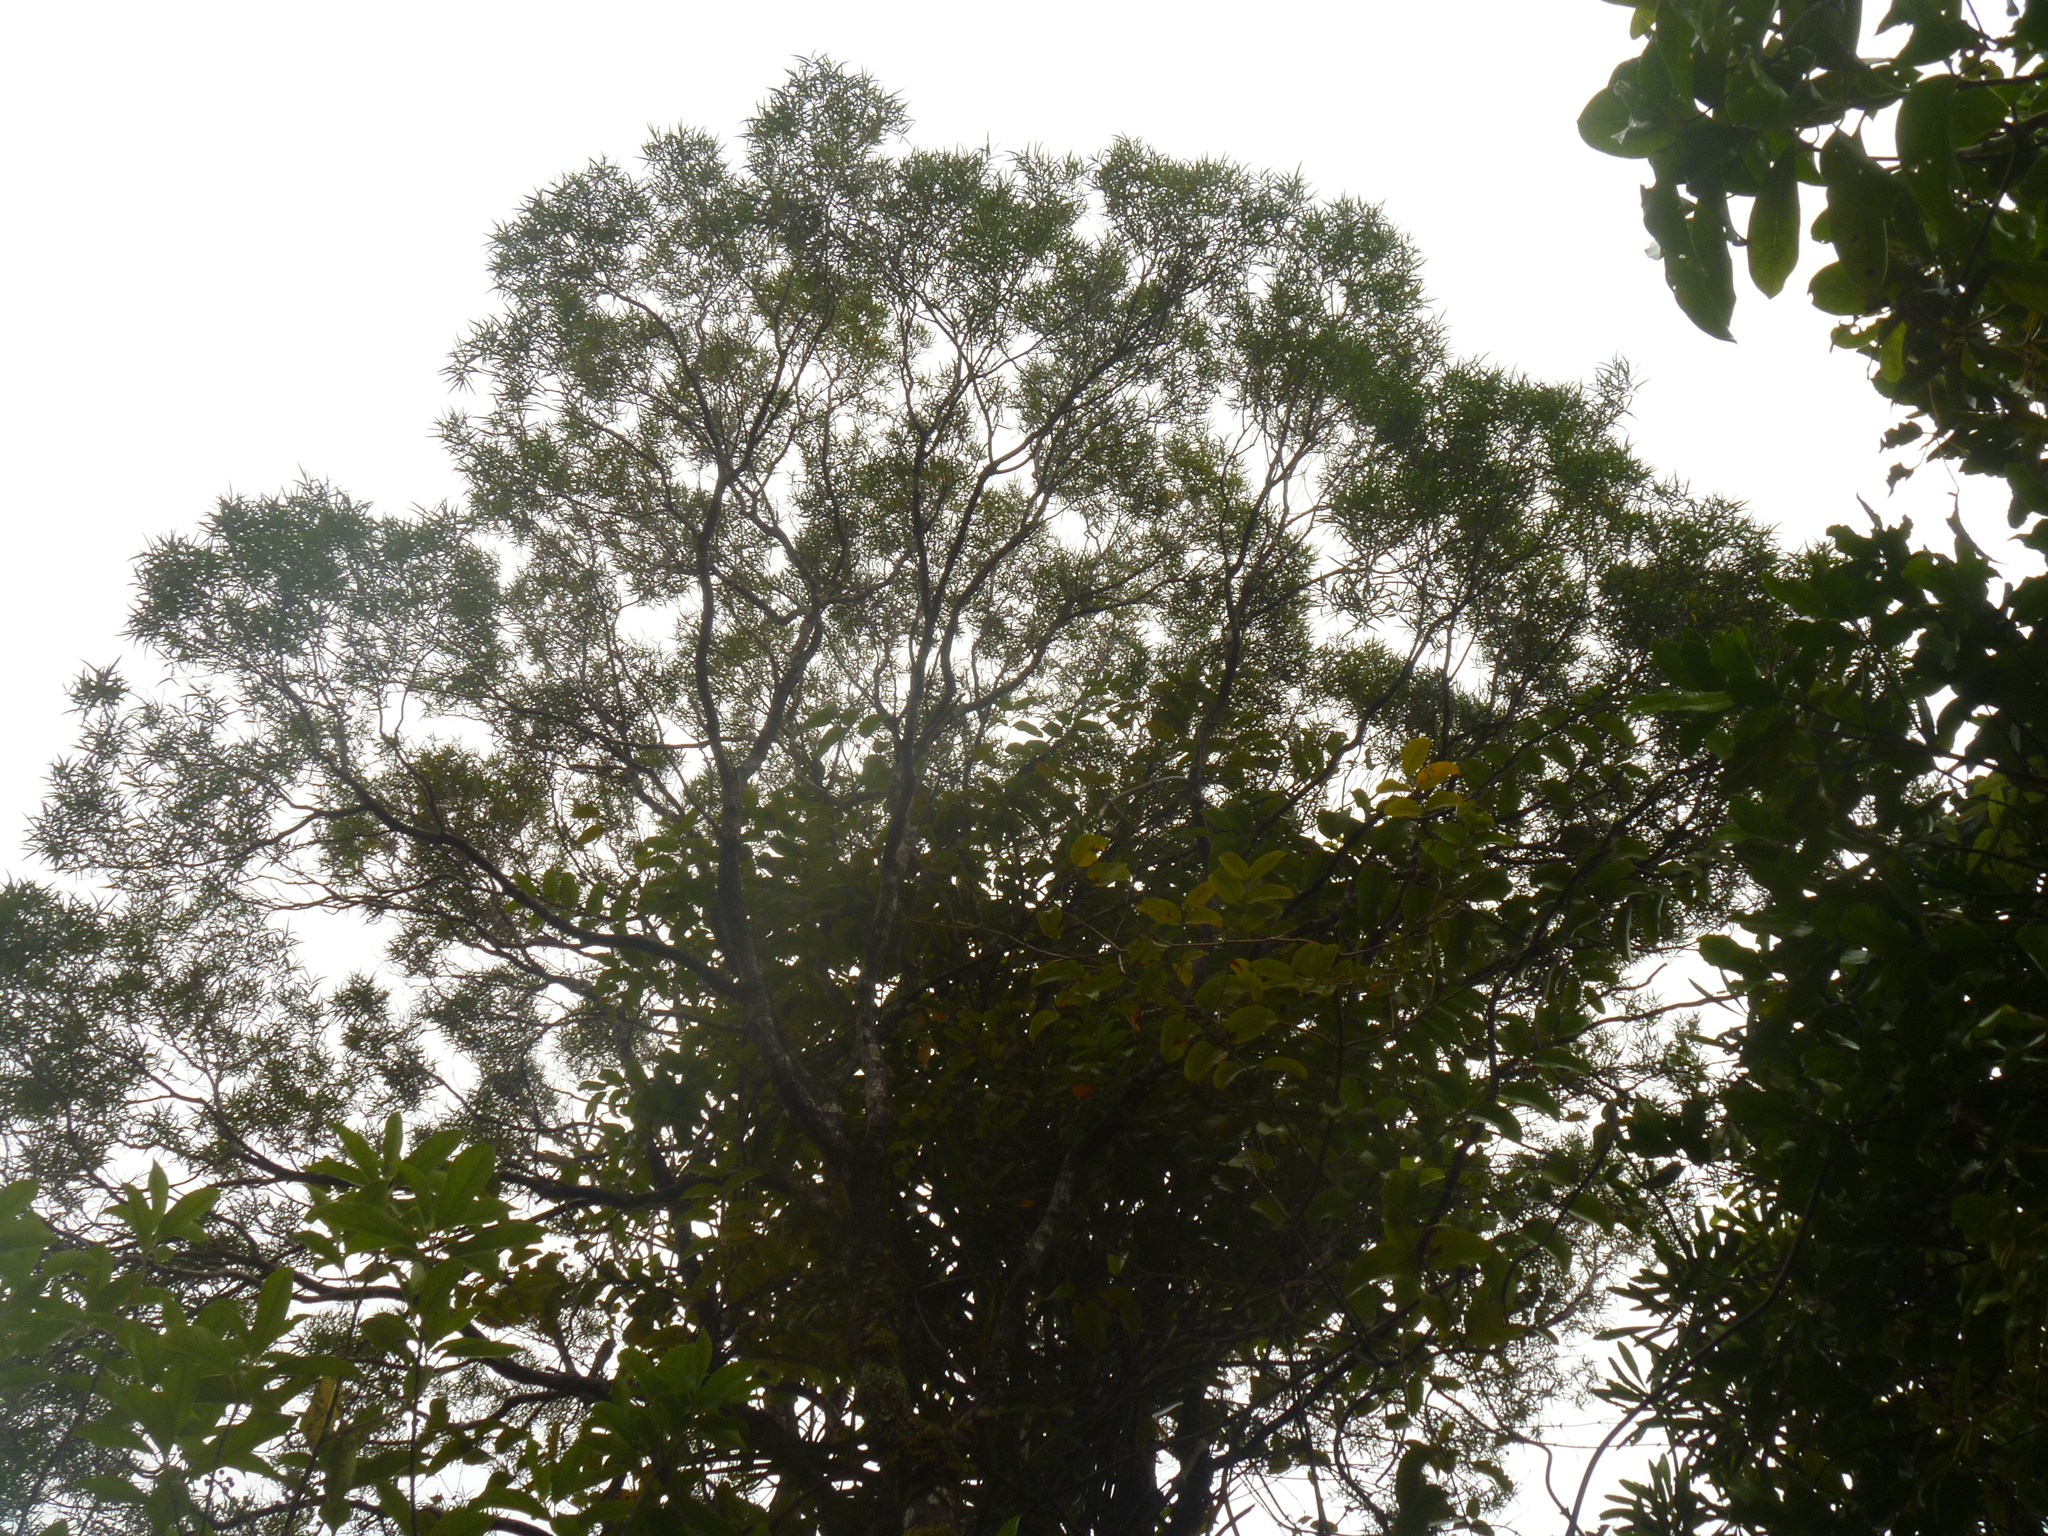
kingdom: Plantae
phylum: Tracheophyta
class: Magnoliopsida
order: Lamiales
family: Oleaceae
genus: Nestegis
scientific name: Nestegis montana
